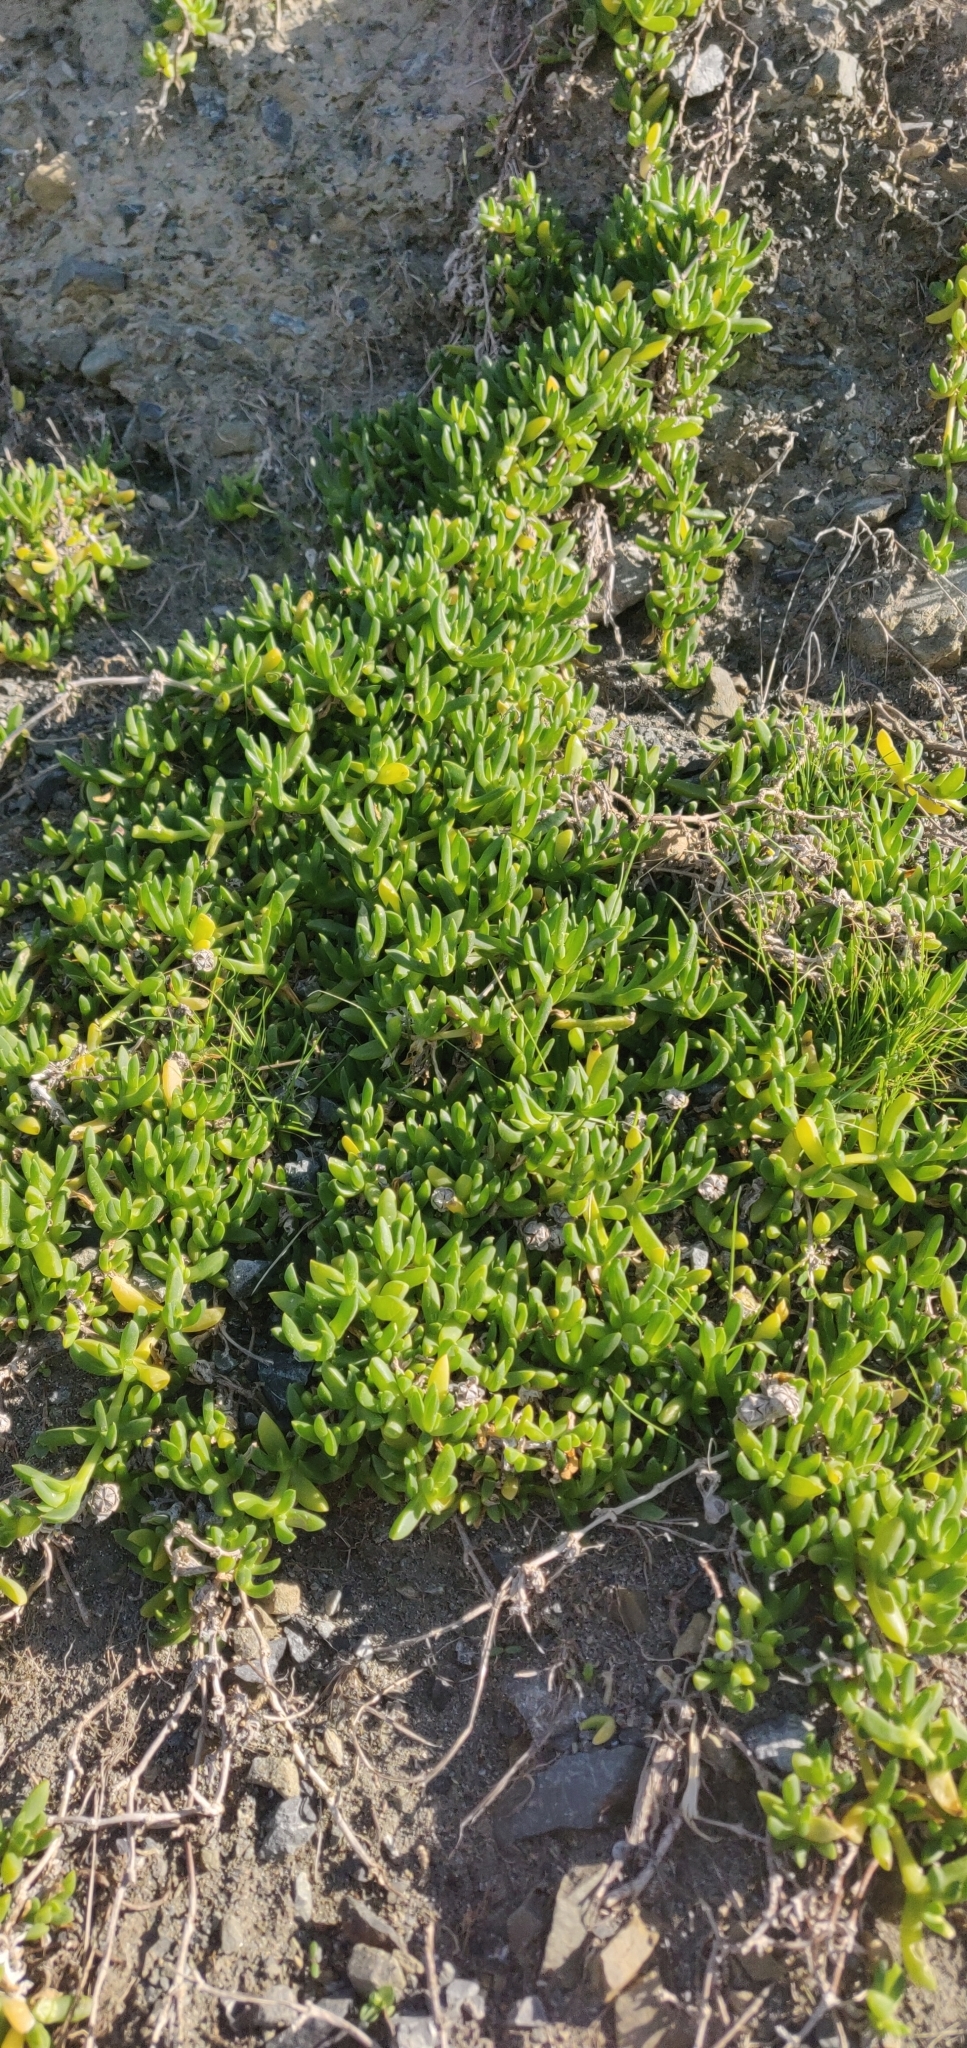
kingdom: Plantae
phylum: Tracheophyta
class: Magnoliopsida
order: Caryophyllales
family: Aizoaceae
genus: Disphyma
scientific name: Disphyma australe
